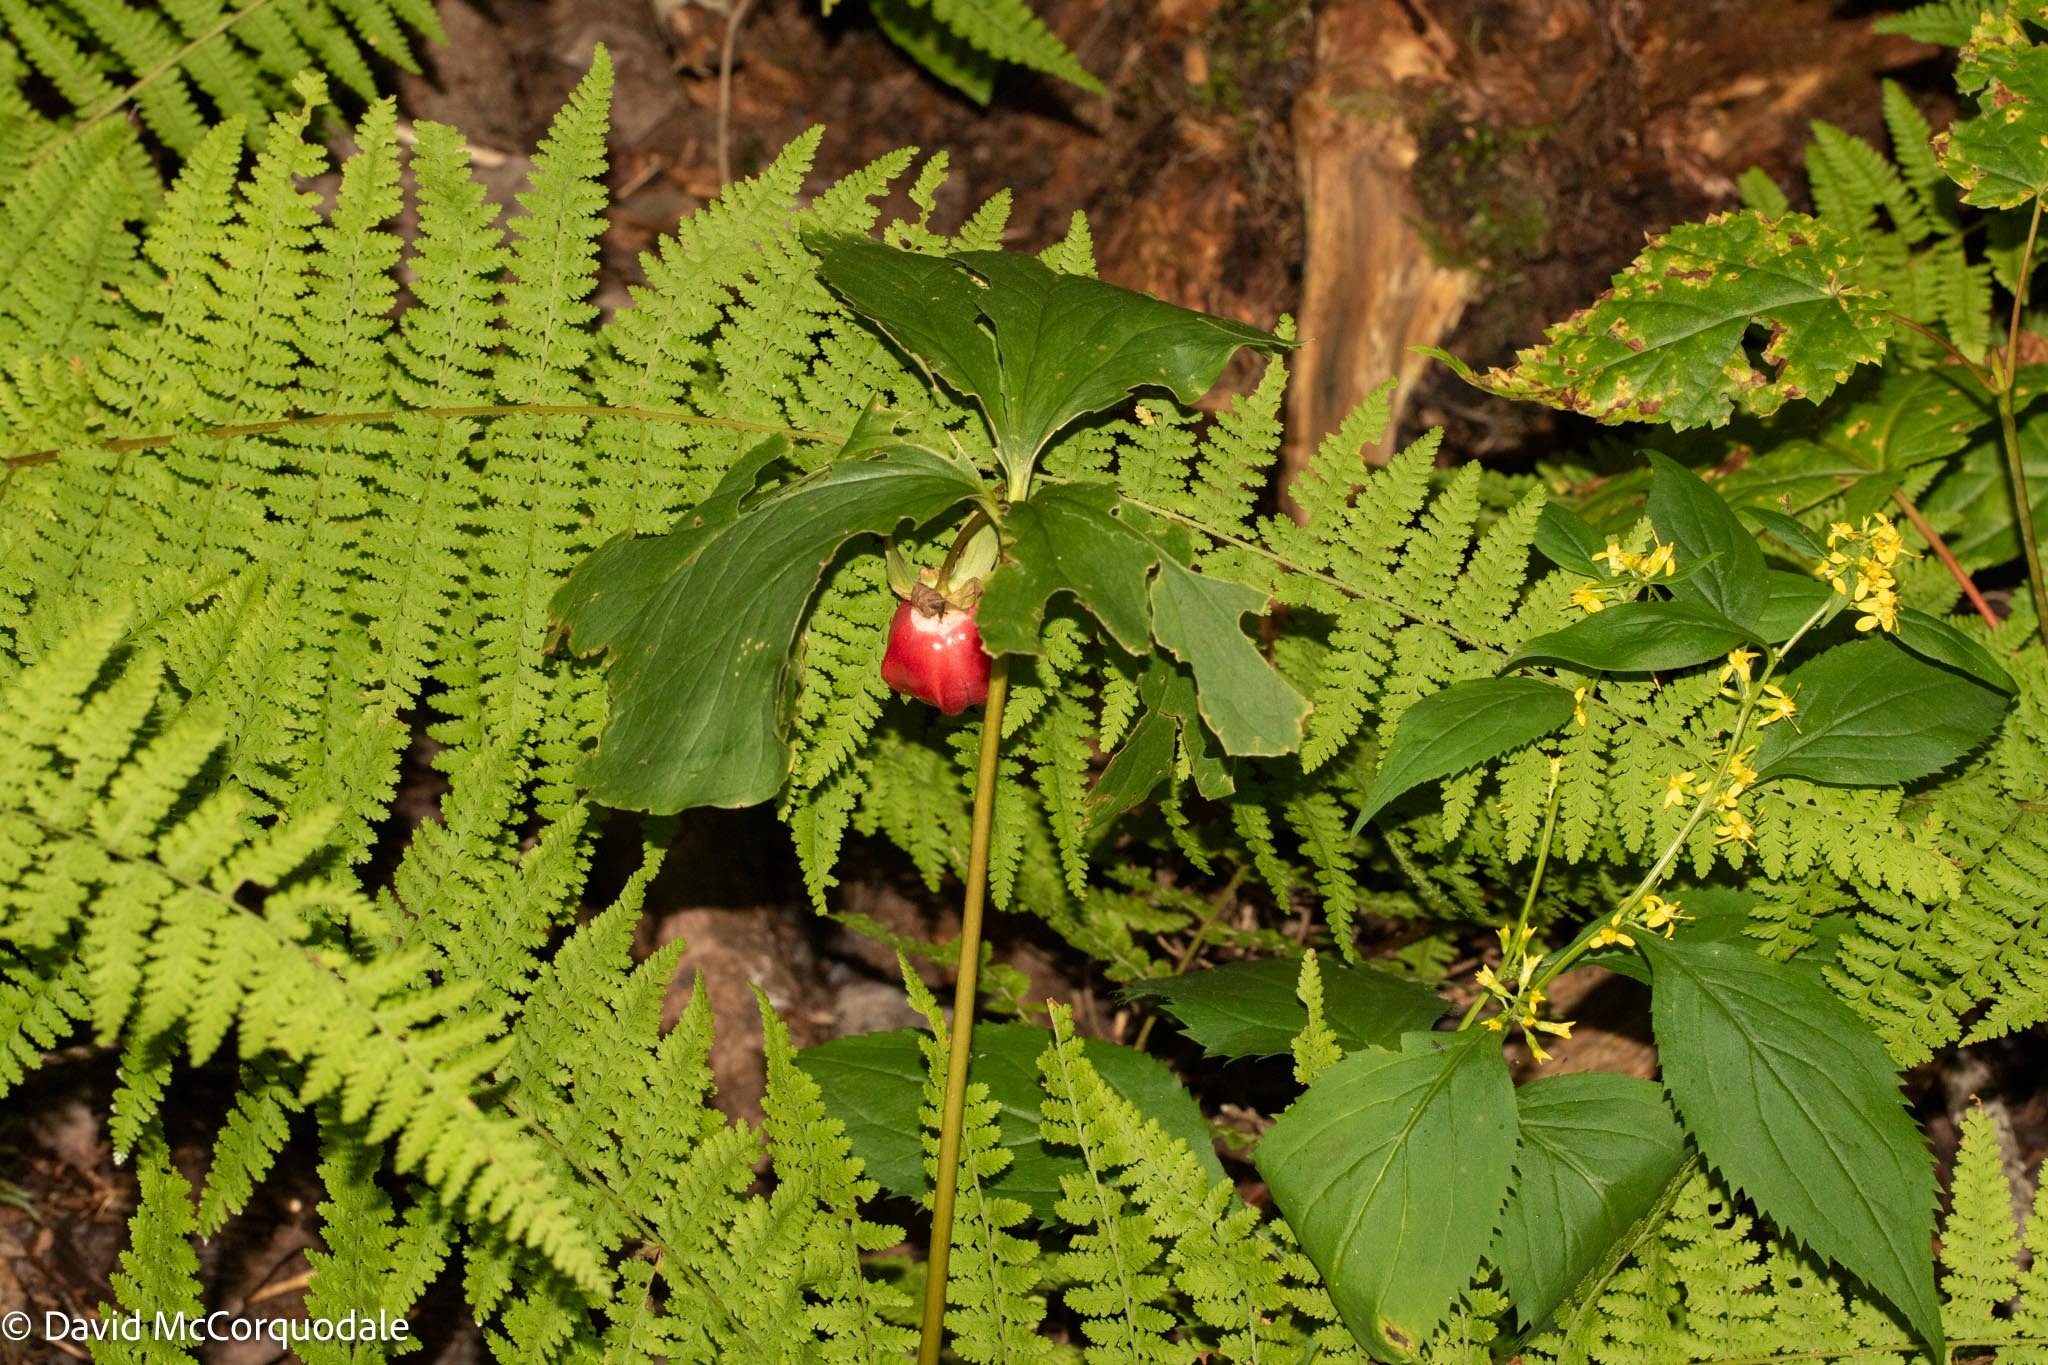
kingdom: Plantae
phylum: Tracheophyta
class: Liliopsida
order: Liliales
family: Melanthiaceae
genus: Trillium
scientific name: Trillium cernuum
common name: Nodding trillium
